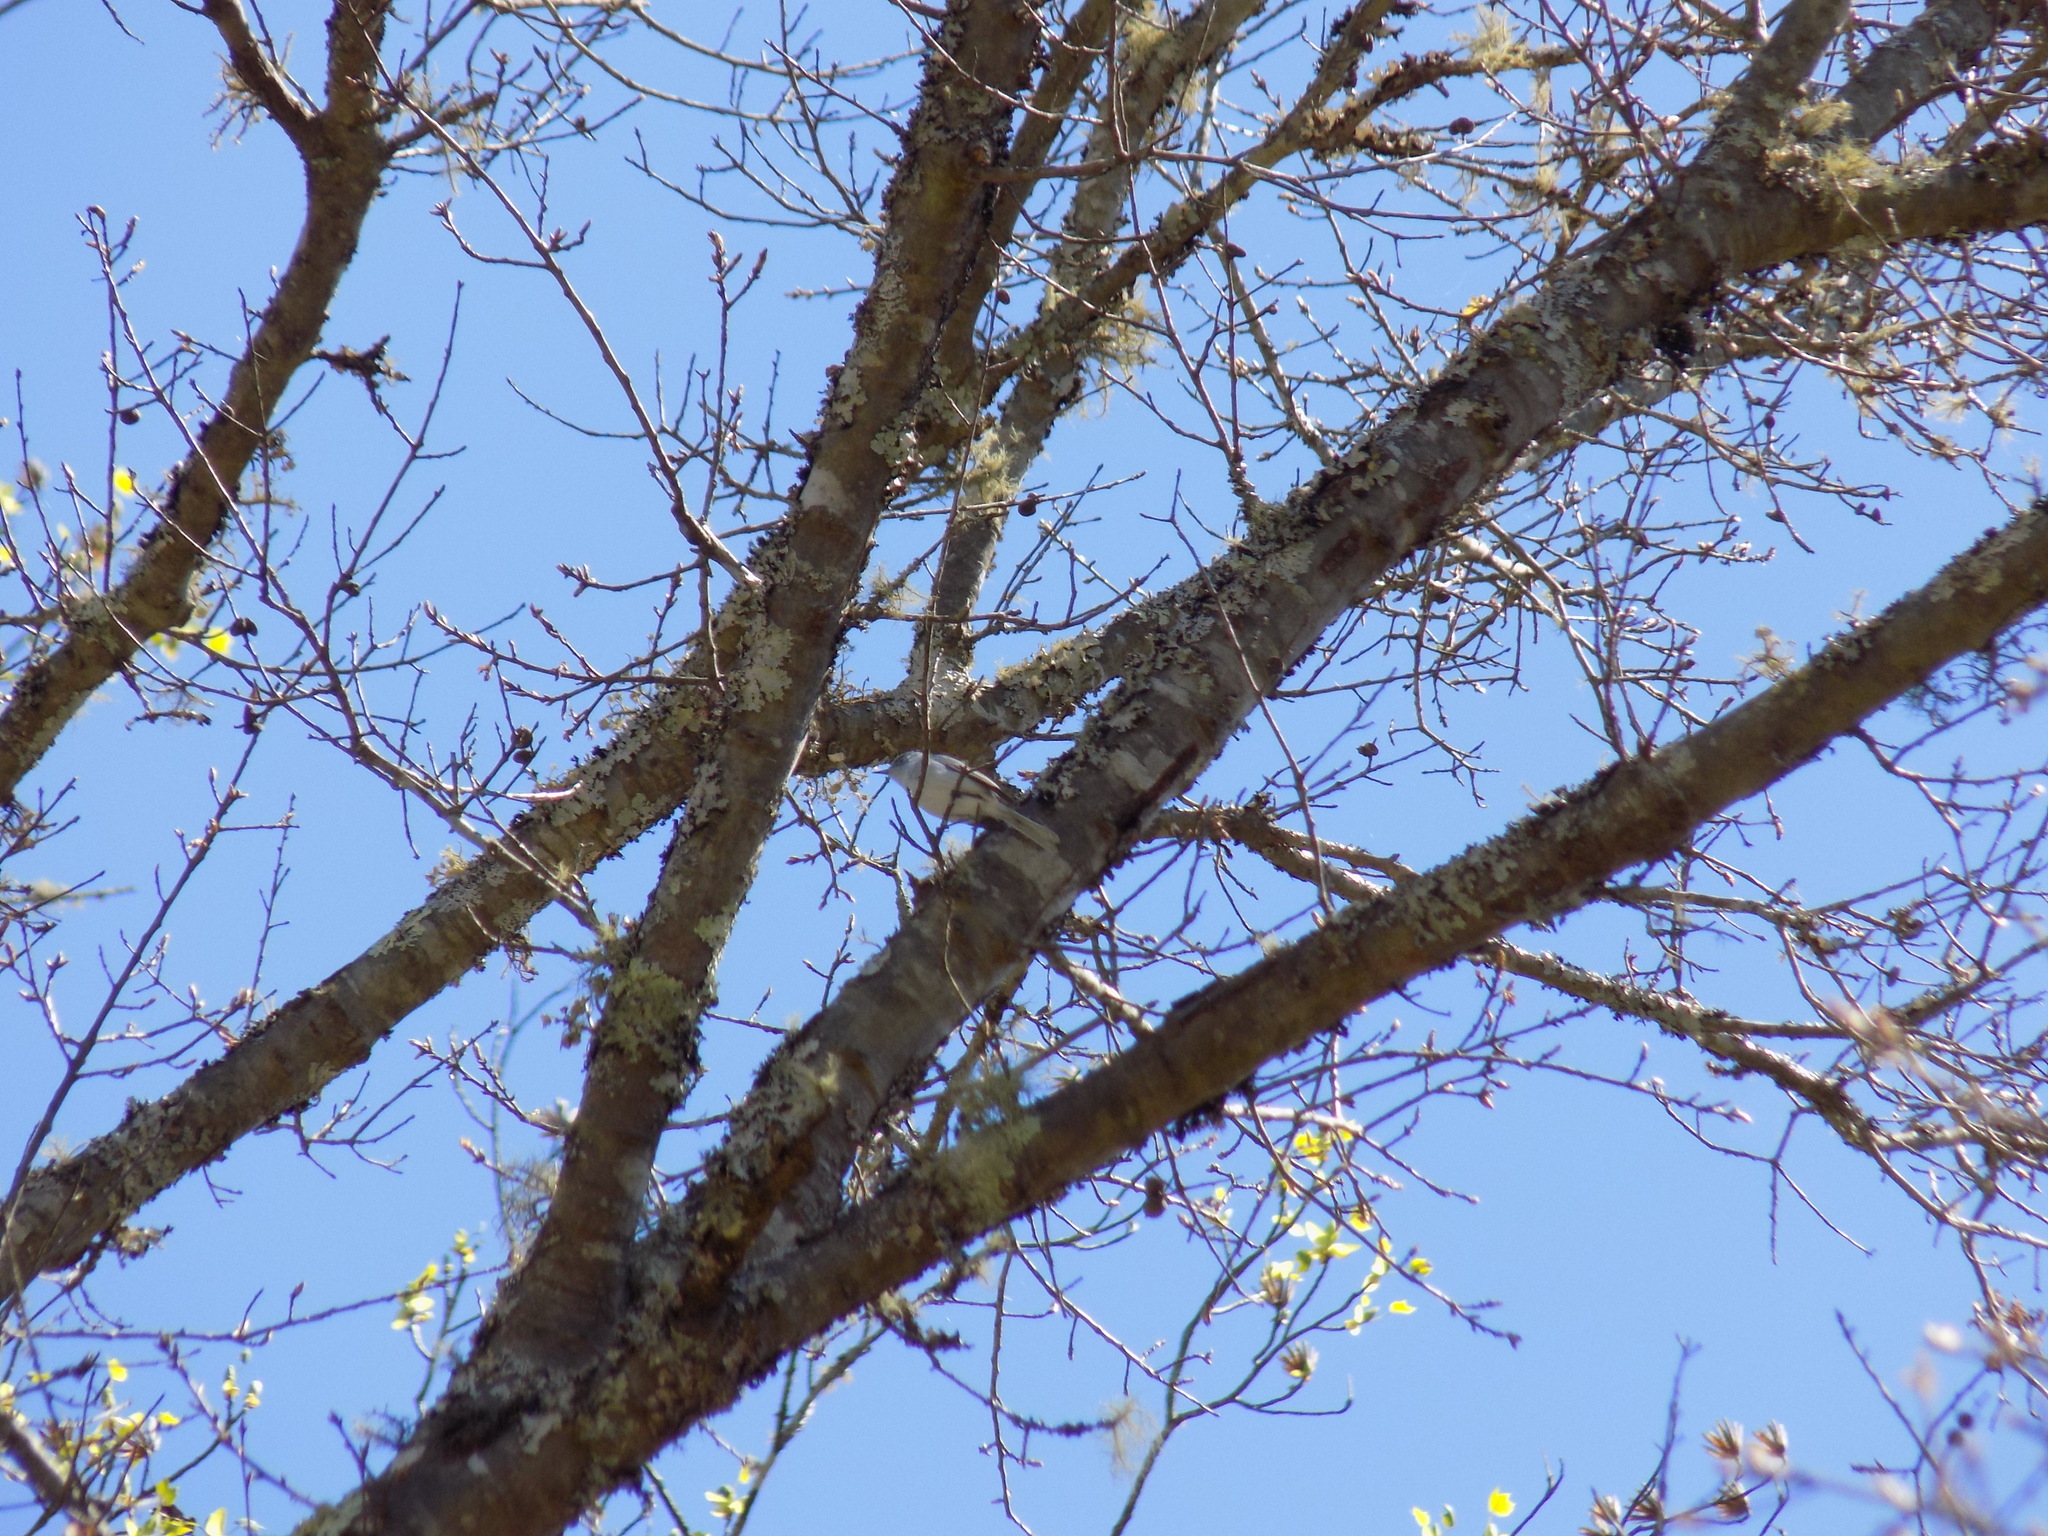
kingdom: Animalia
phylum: Chordata
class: Aves
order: Passeriformes
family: Polioptilidae
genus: Polioptila
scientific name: Polioptila caerulea
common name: Blue-gray gnatcatcher
